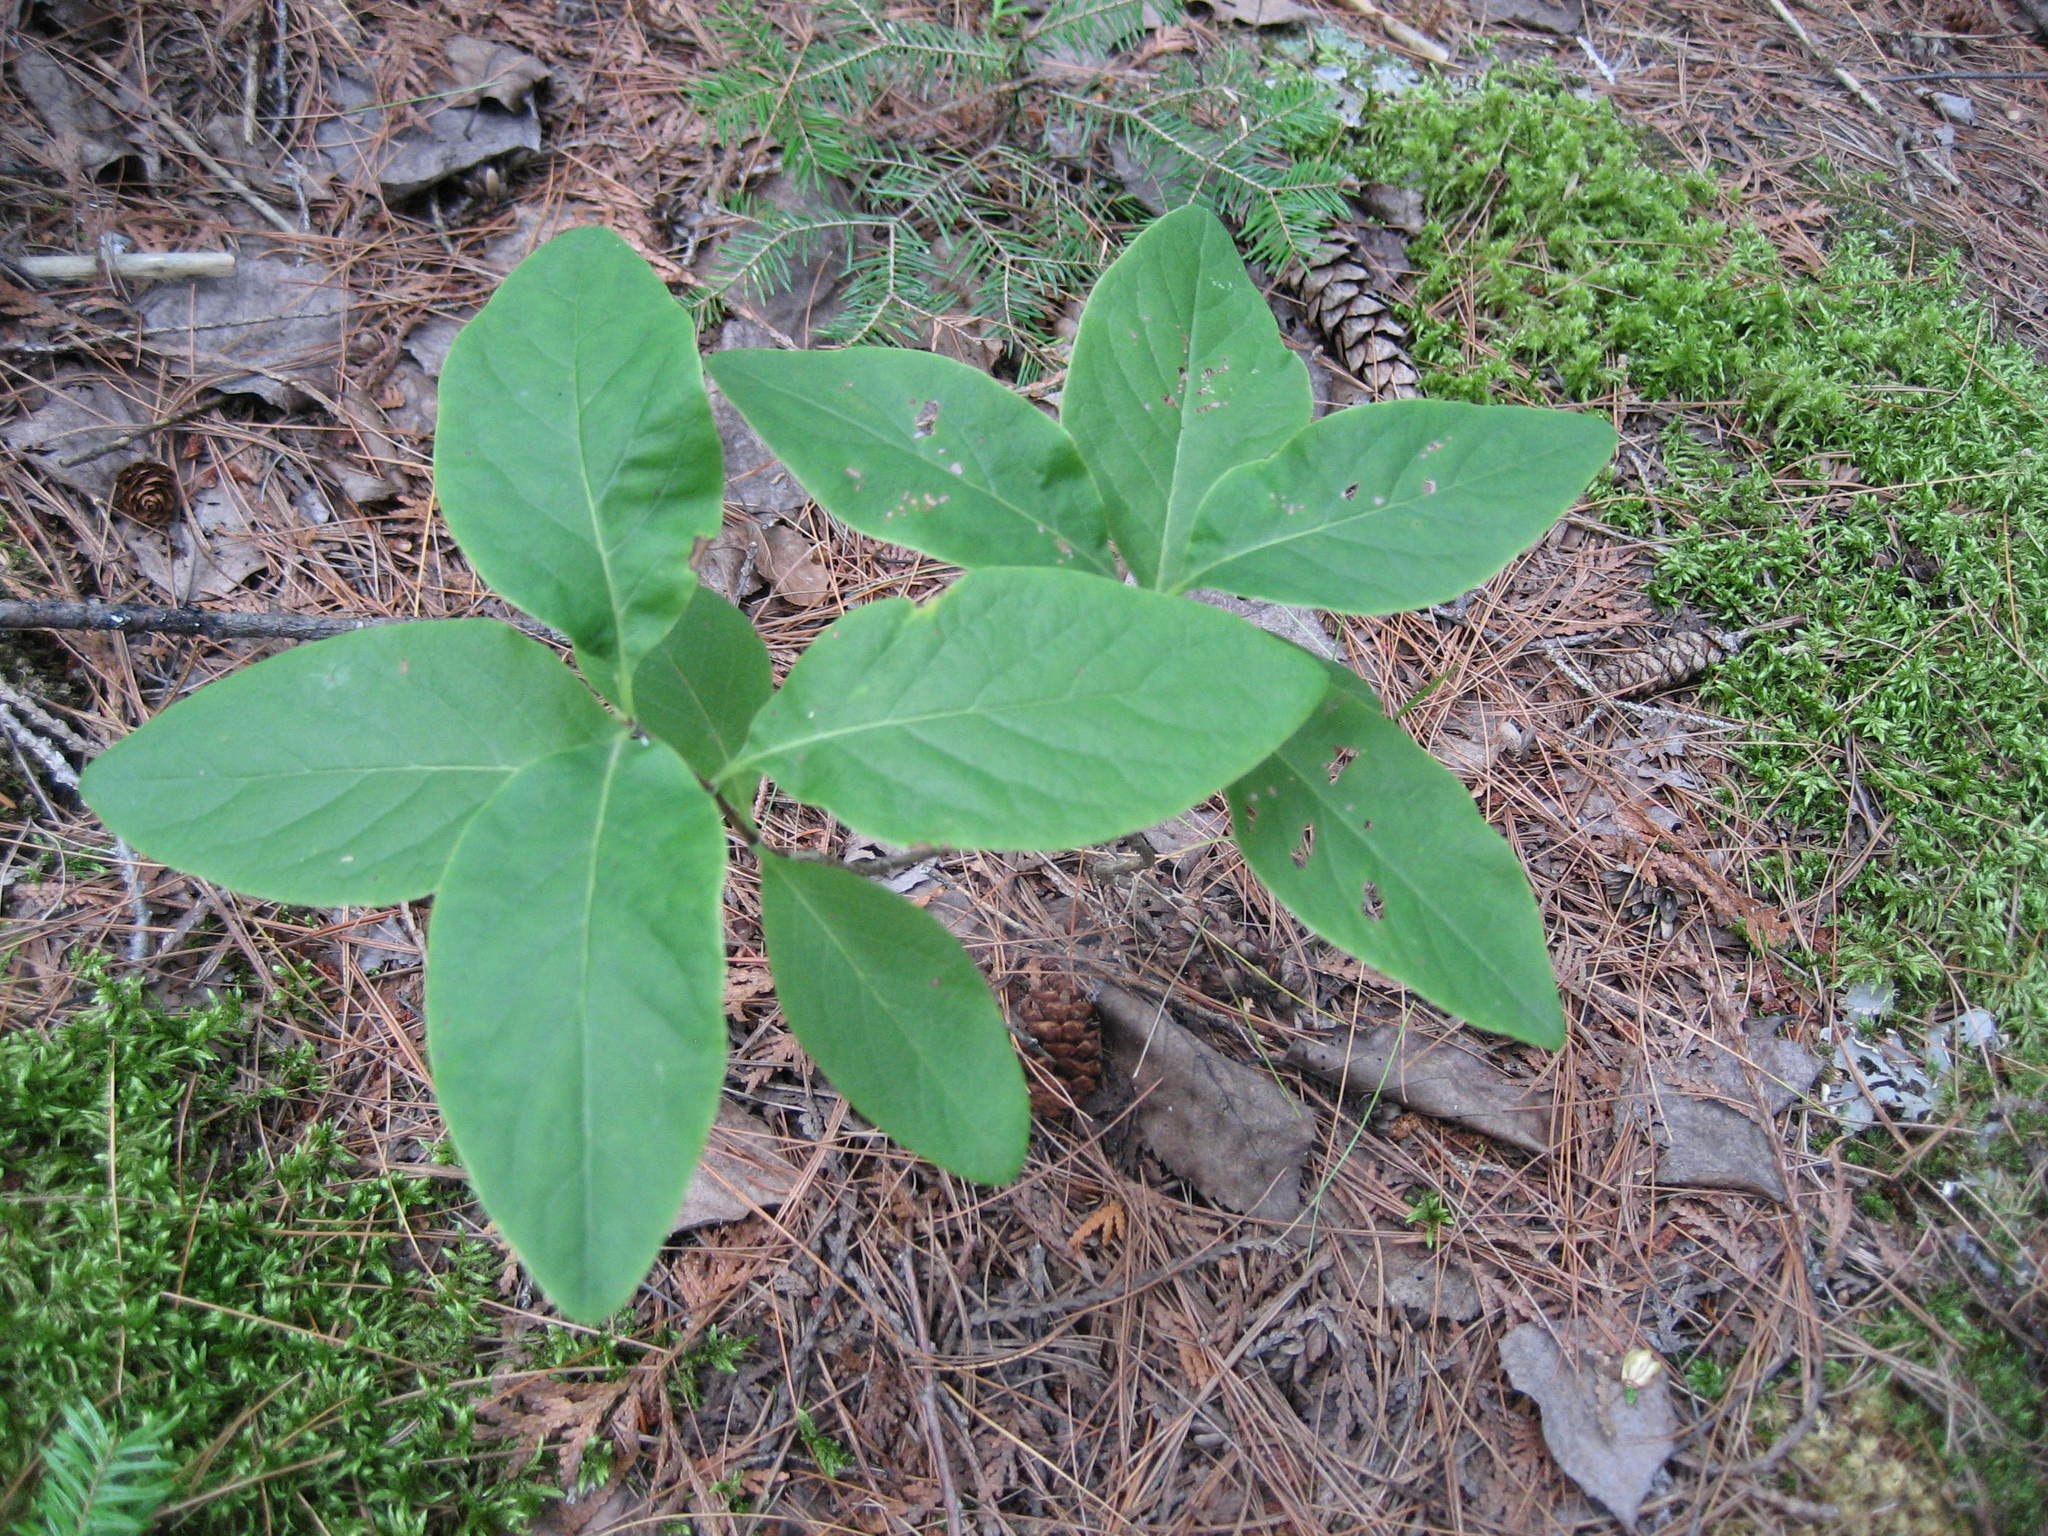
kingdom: Plantae
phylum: Tracheophyta
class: Magnoliopsida
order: Dipsacales
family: Caprifoliaceae
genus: Lonicera
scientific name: Lonicera dioica
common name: Limber honeysuckle
